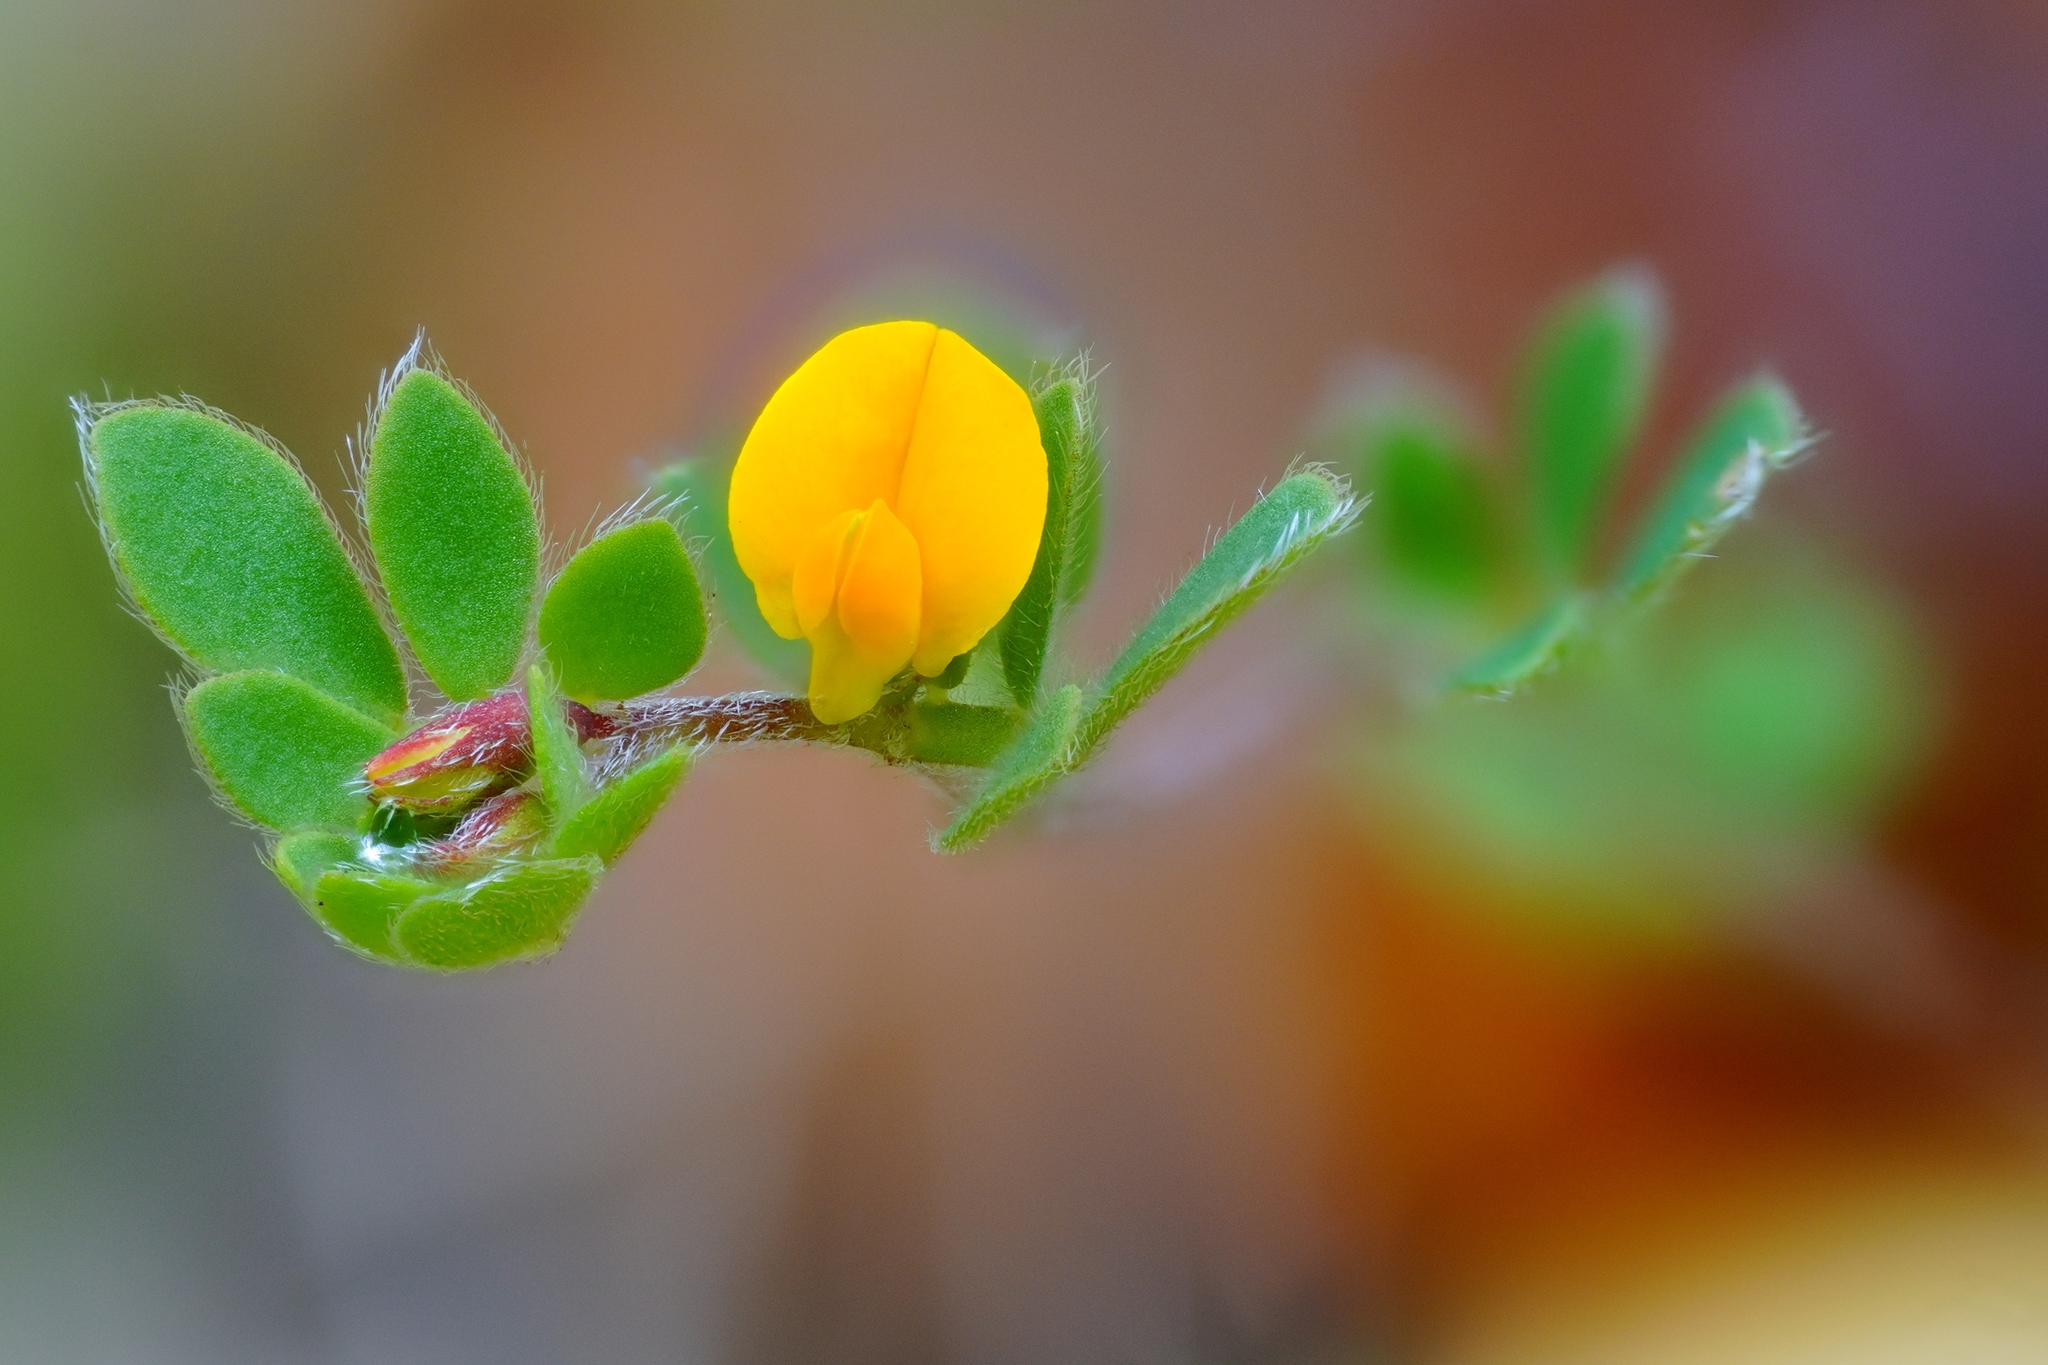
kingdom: Plantae
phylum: Tracheophyta
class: Magnoliopsida
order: Fabales
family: Fabaceae
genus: Acmispon
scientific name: Acmispon wrangelianus
